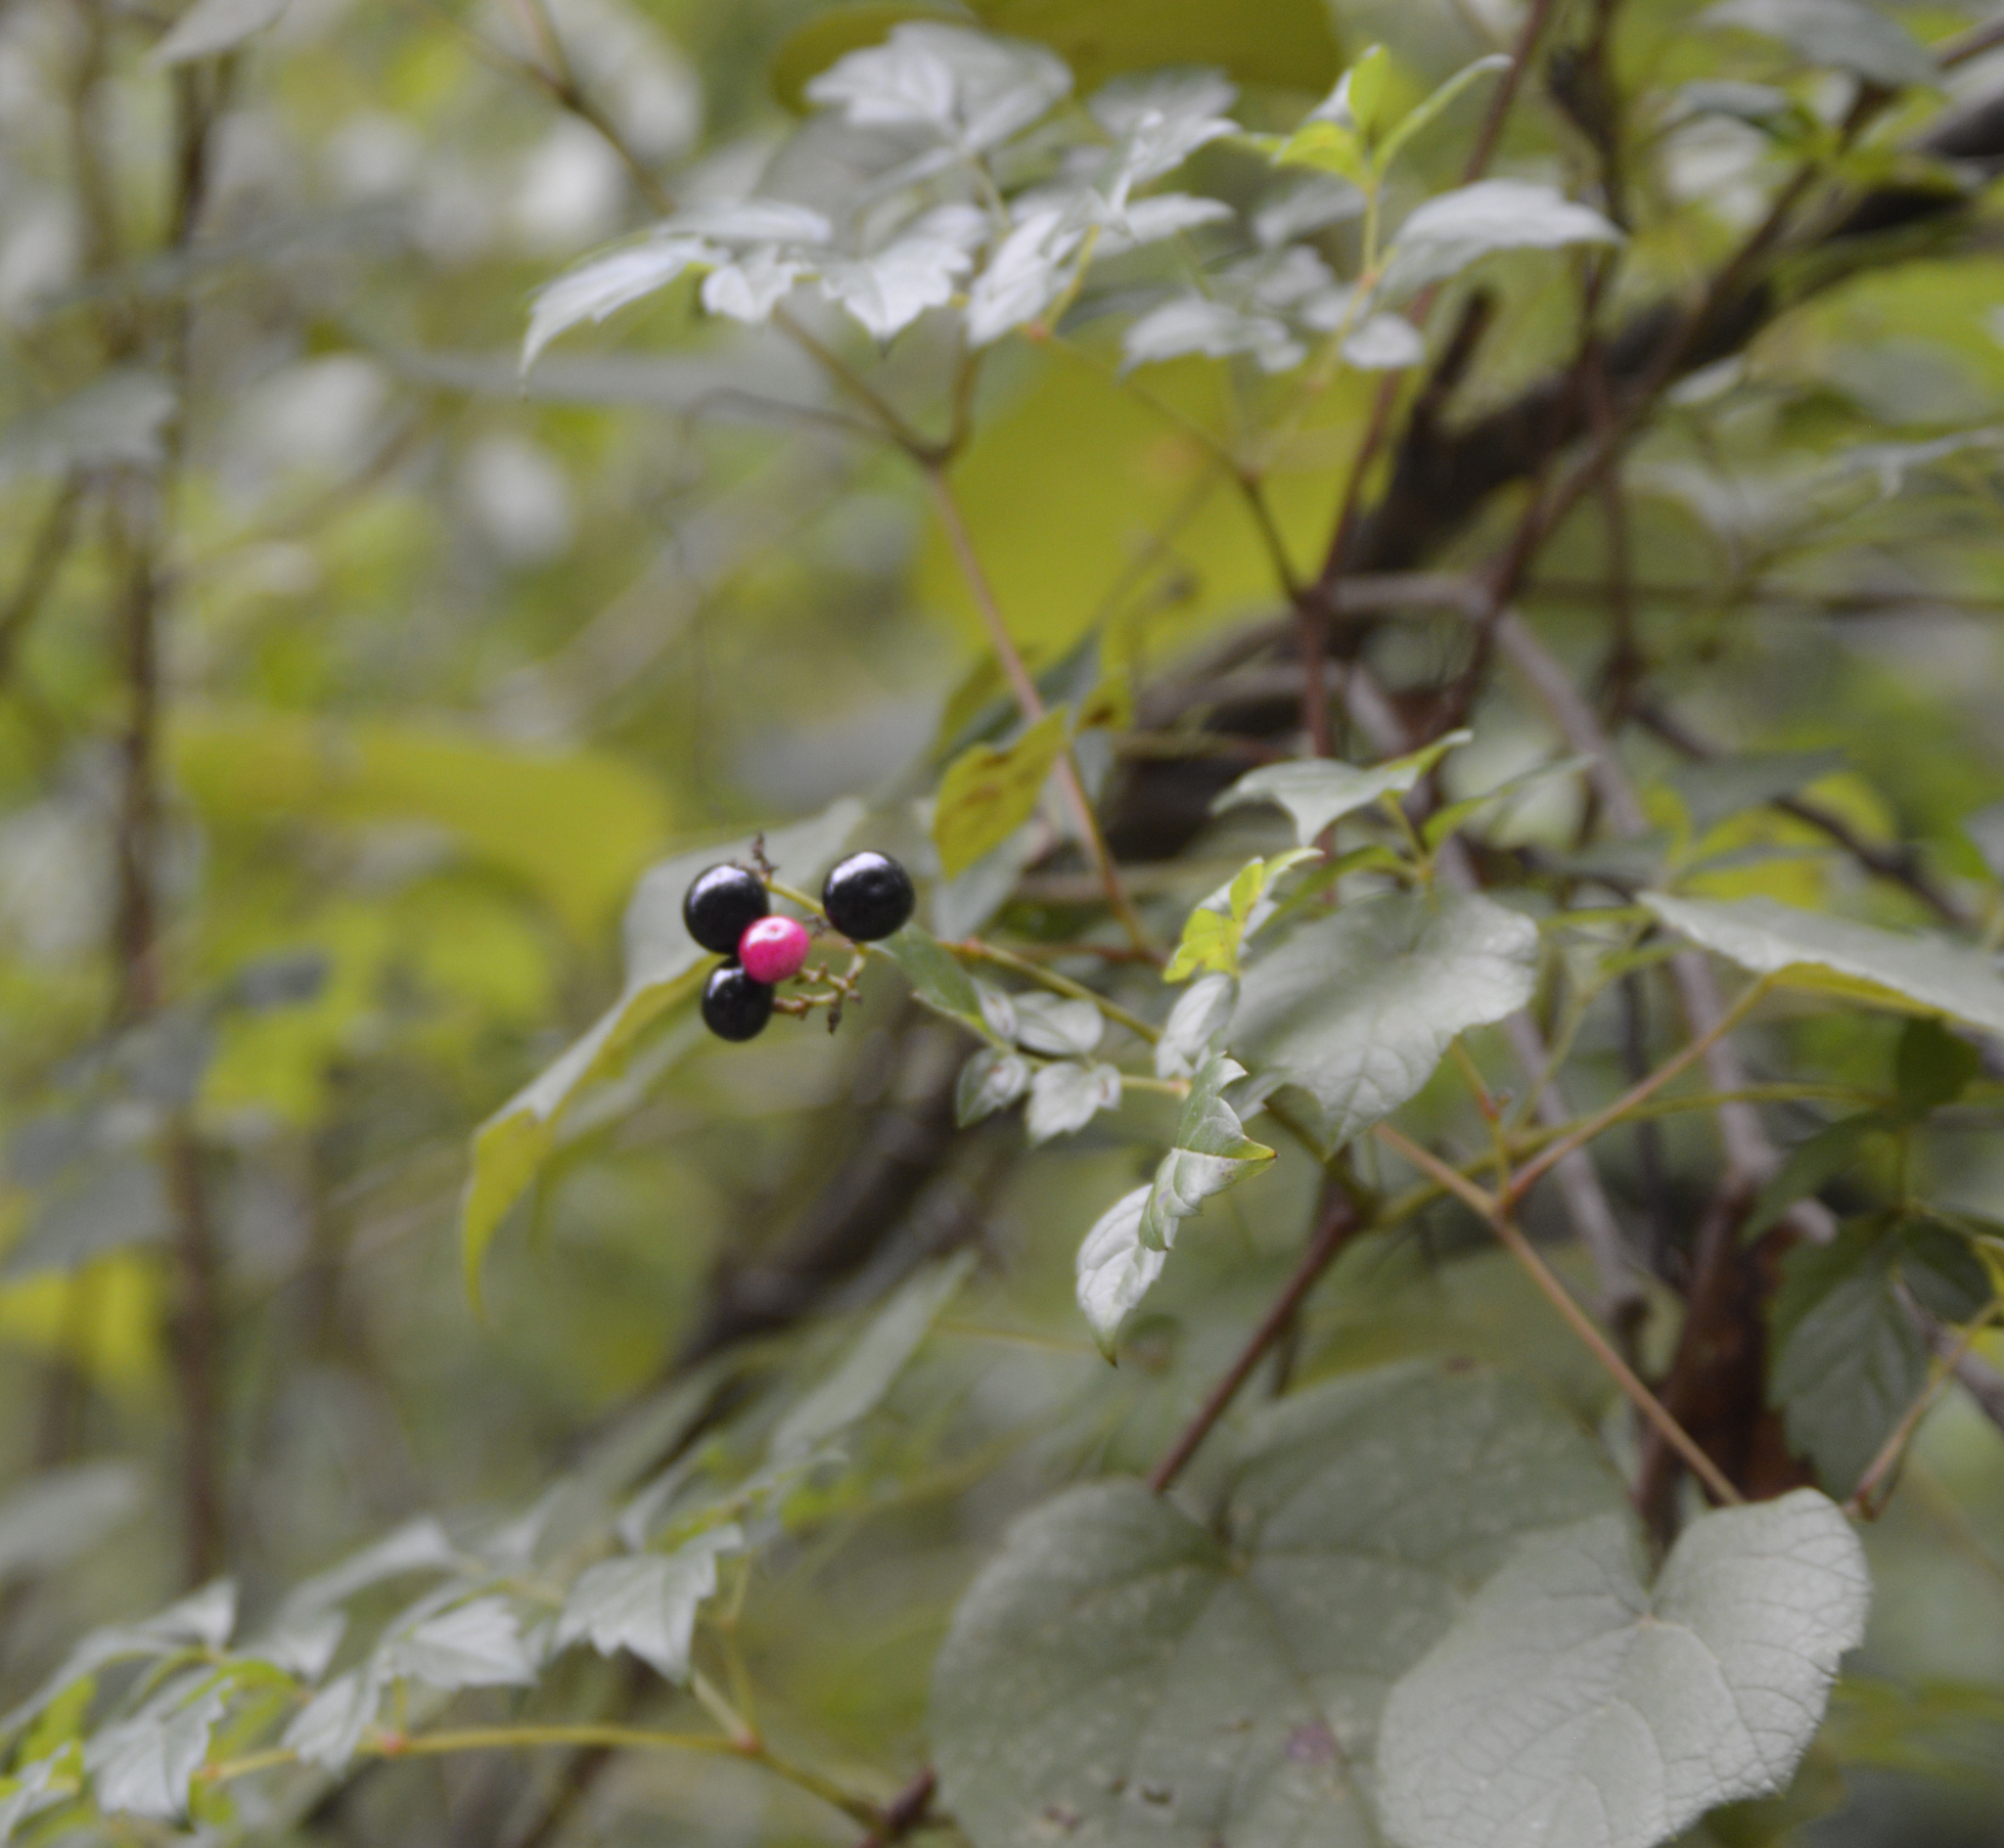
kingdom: Plantae
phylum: Tracheophyta
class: Magnoliopsida
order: Vitales
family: Vitaceae
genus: Nekemias
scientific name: Nekemias arborea
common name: Peppervine
